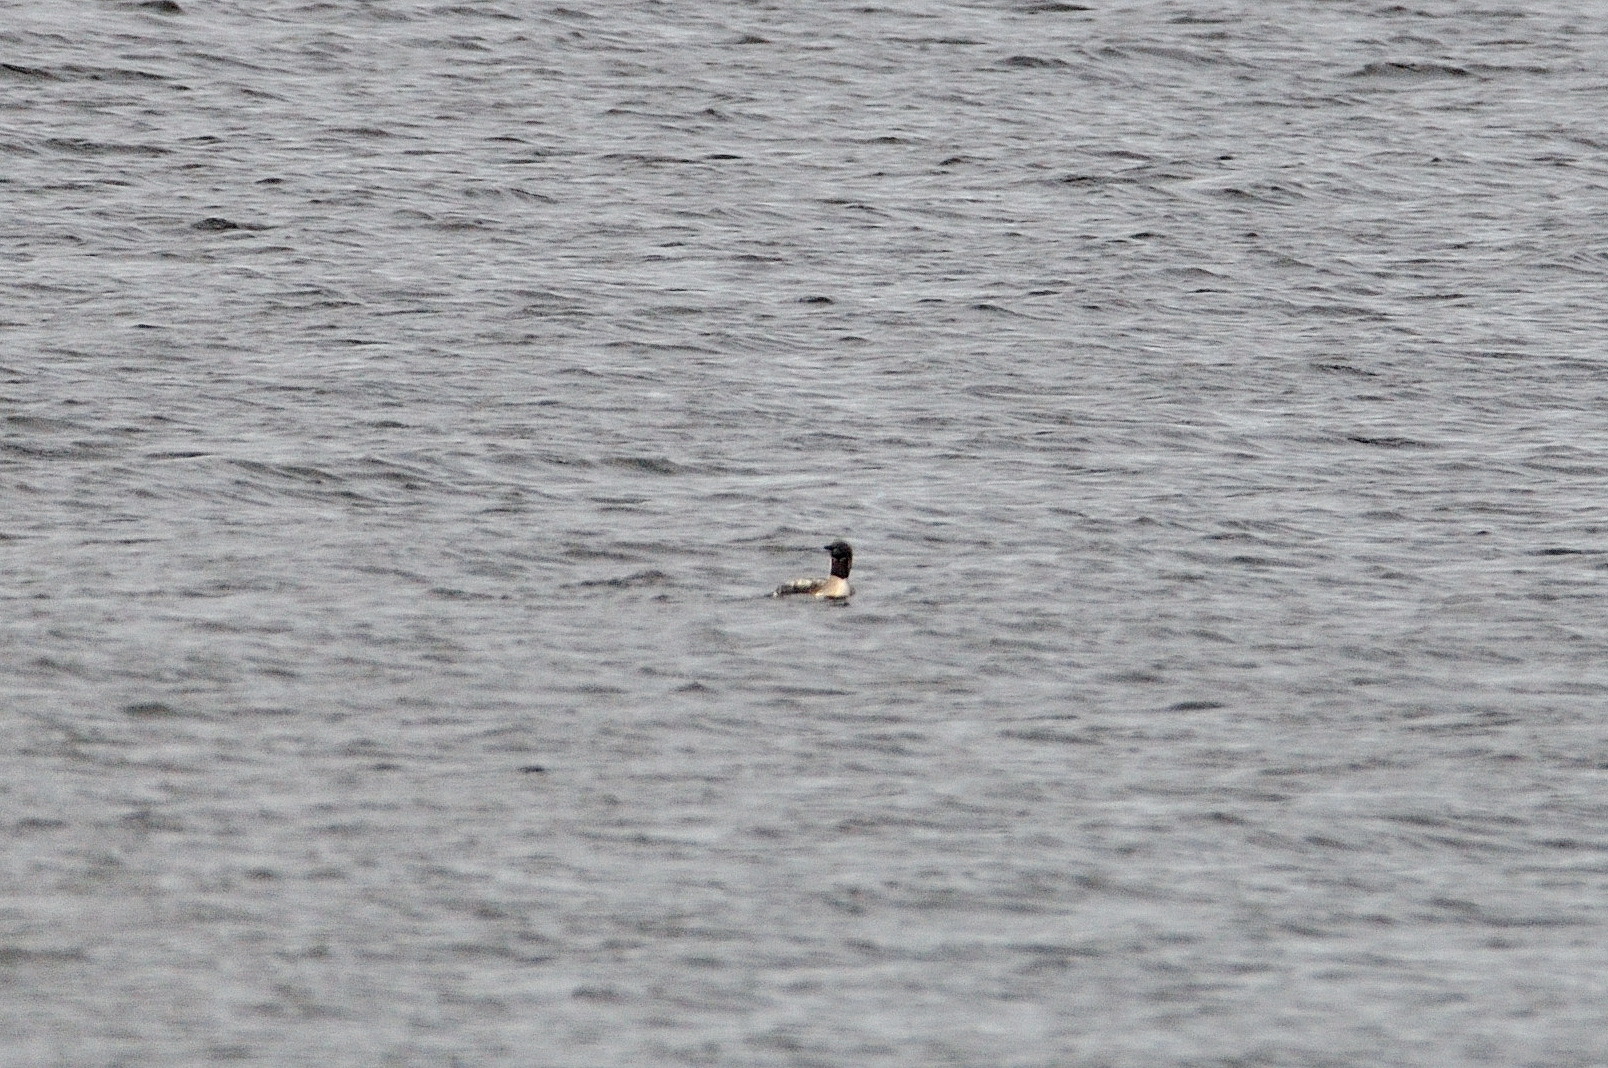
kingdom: Animalia
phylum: Chordata
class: Aves
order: Gaviiformes
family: Gaviidae
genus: Gavia
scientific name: Gavia arctica
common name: Black-throated loon
